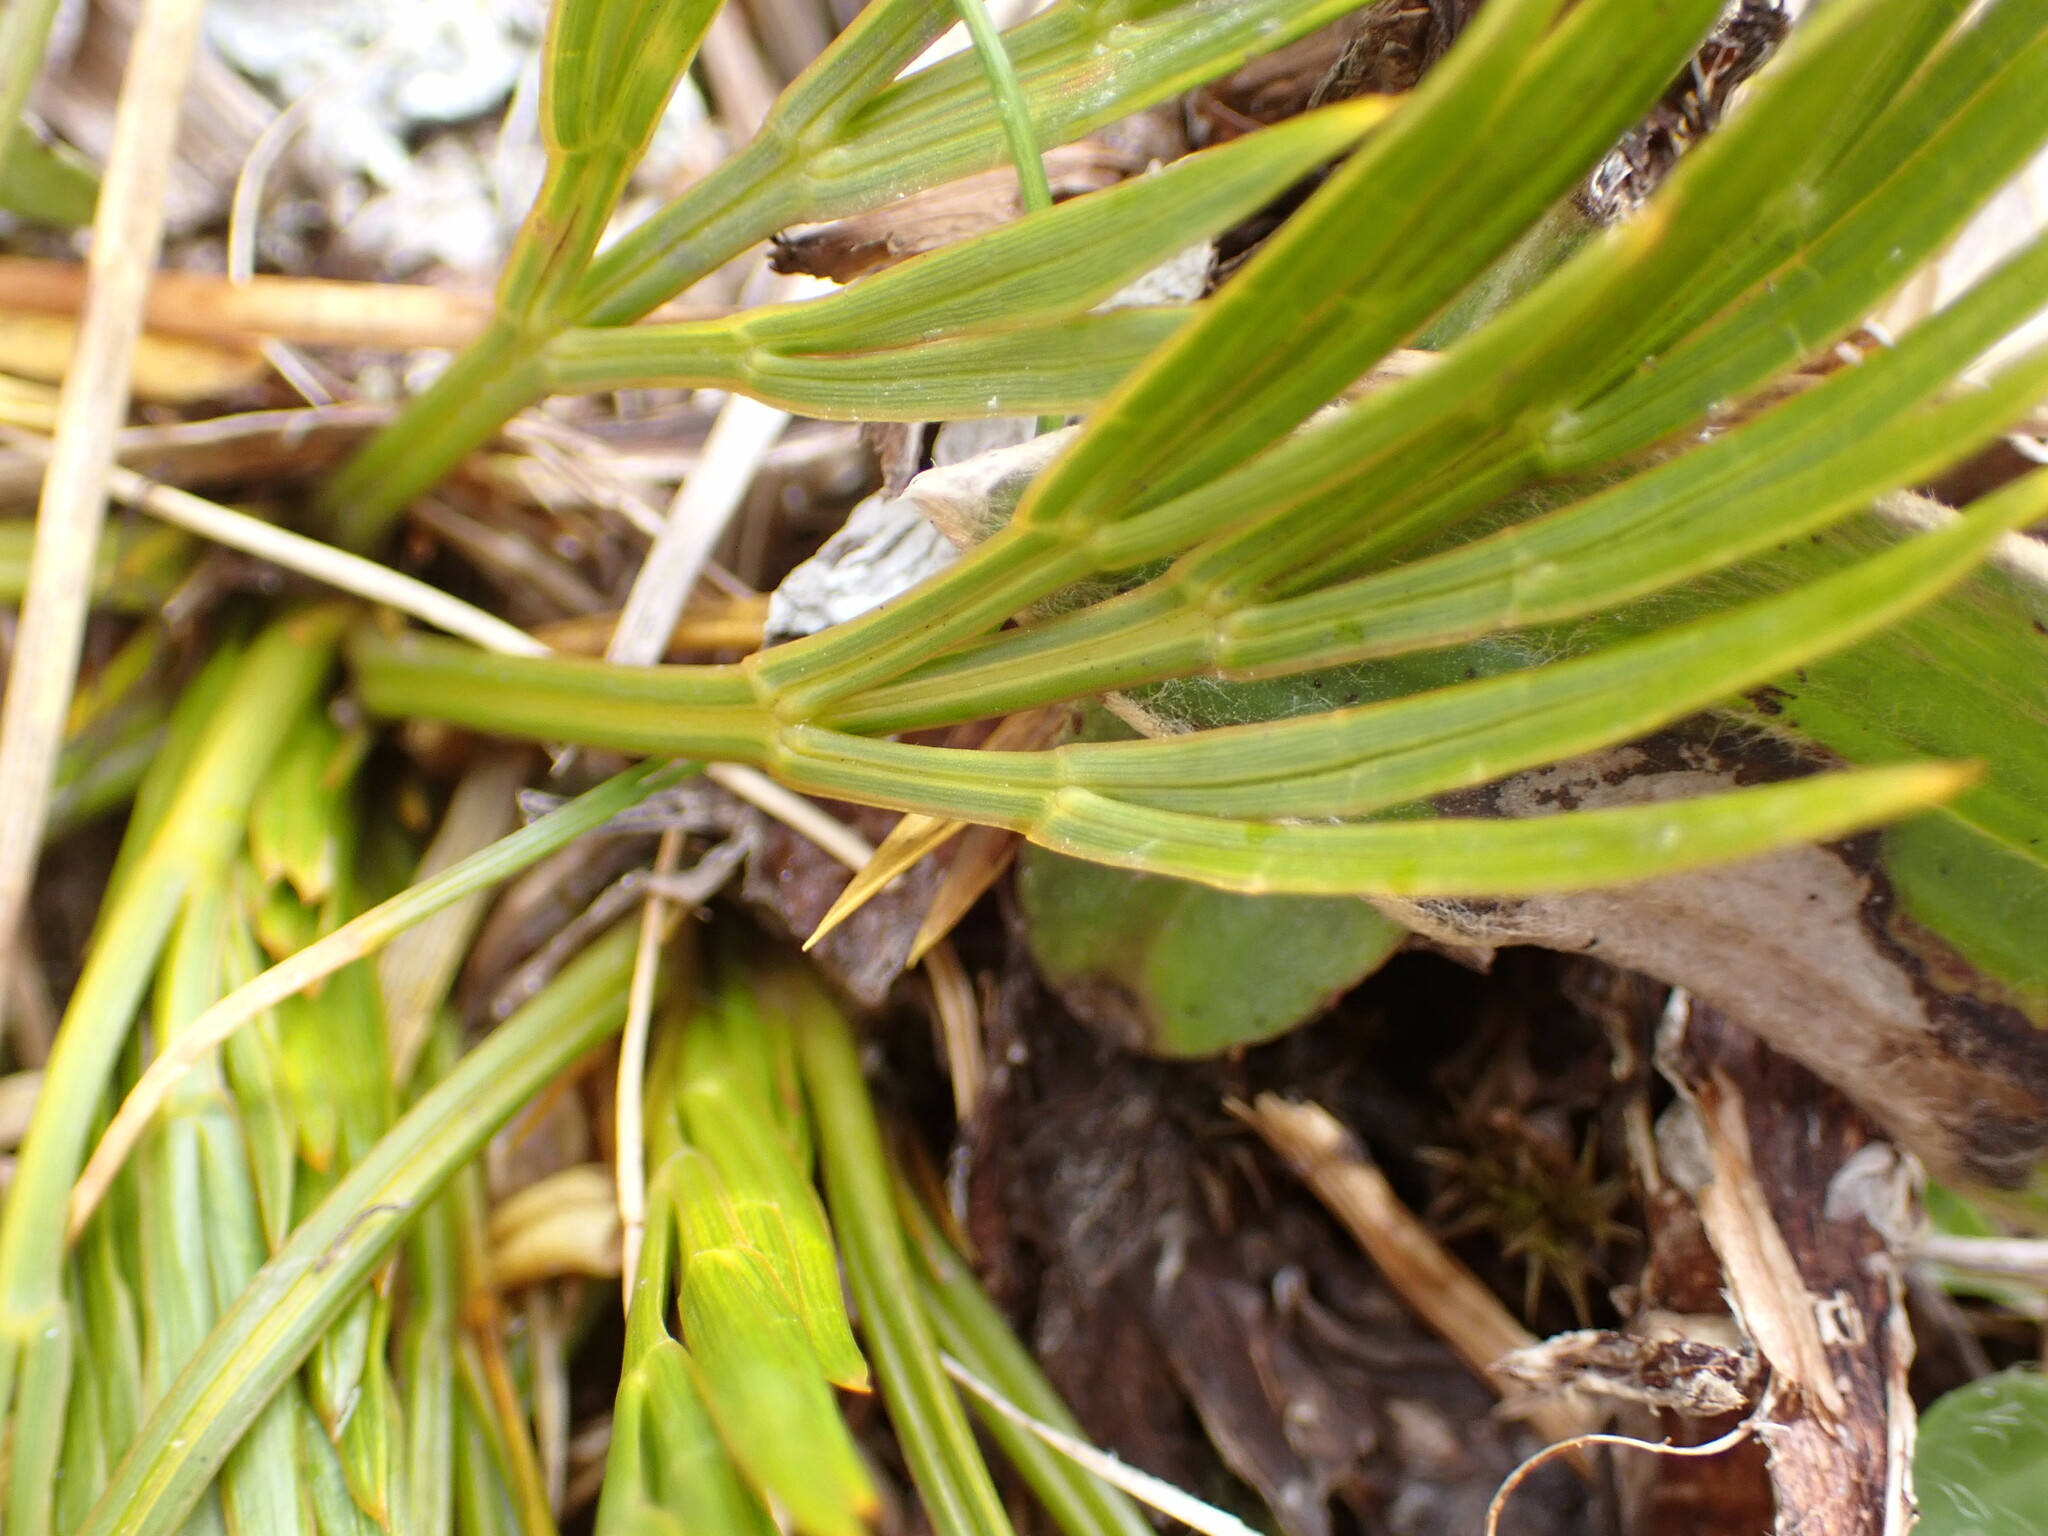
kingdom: Plantae
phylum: Tracheophyta
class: Magnoliopsida
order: Apiales
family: Apiaceae
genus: Aciphylla
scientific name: Aciphylla divisa
